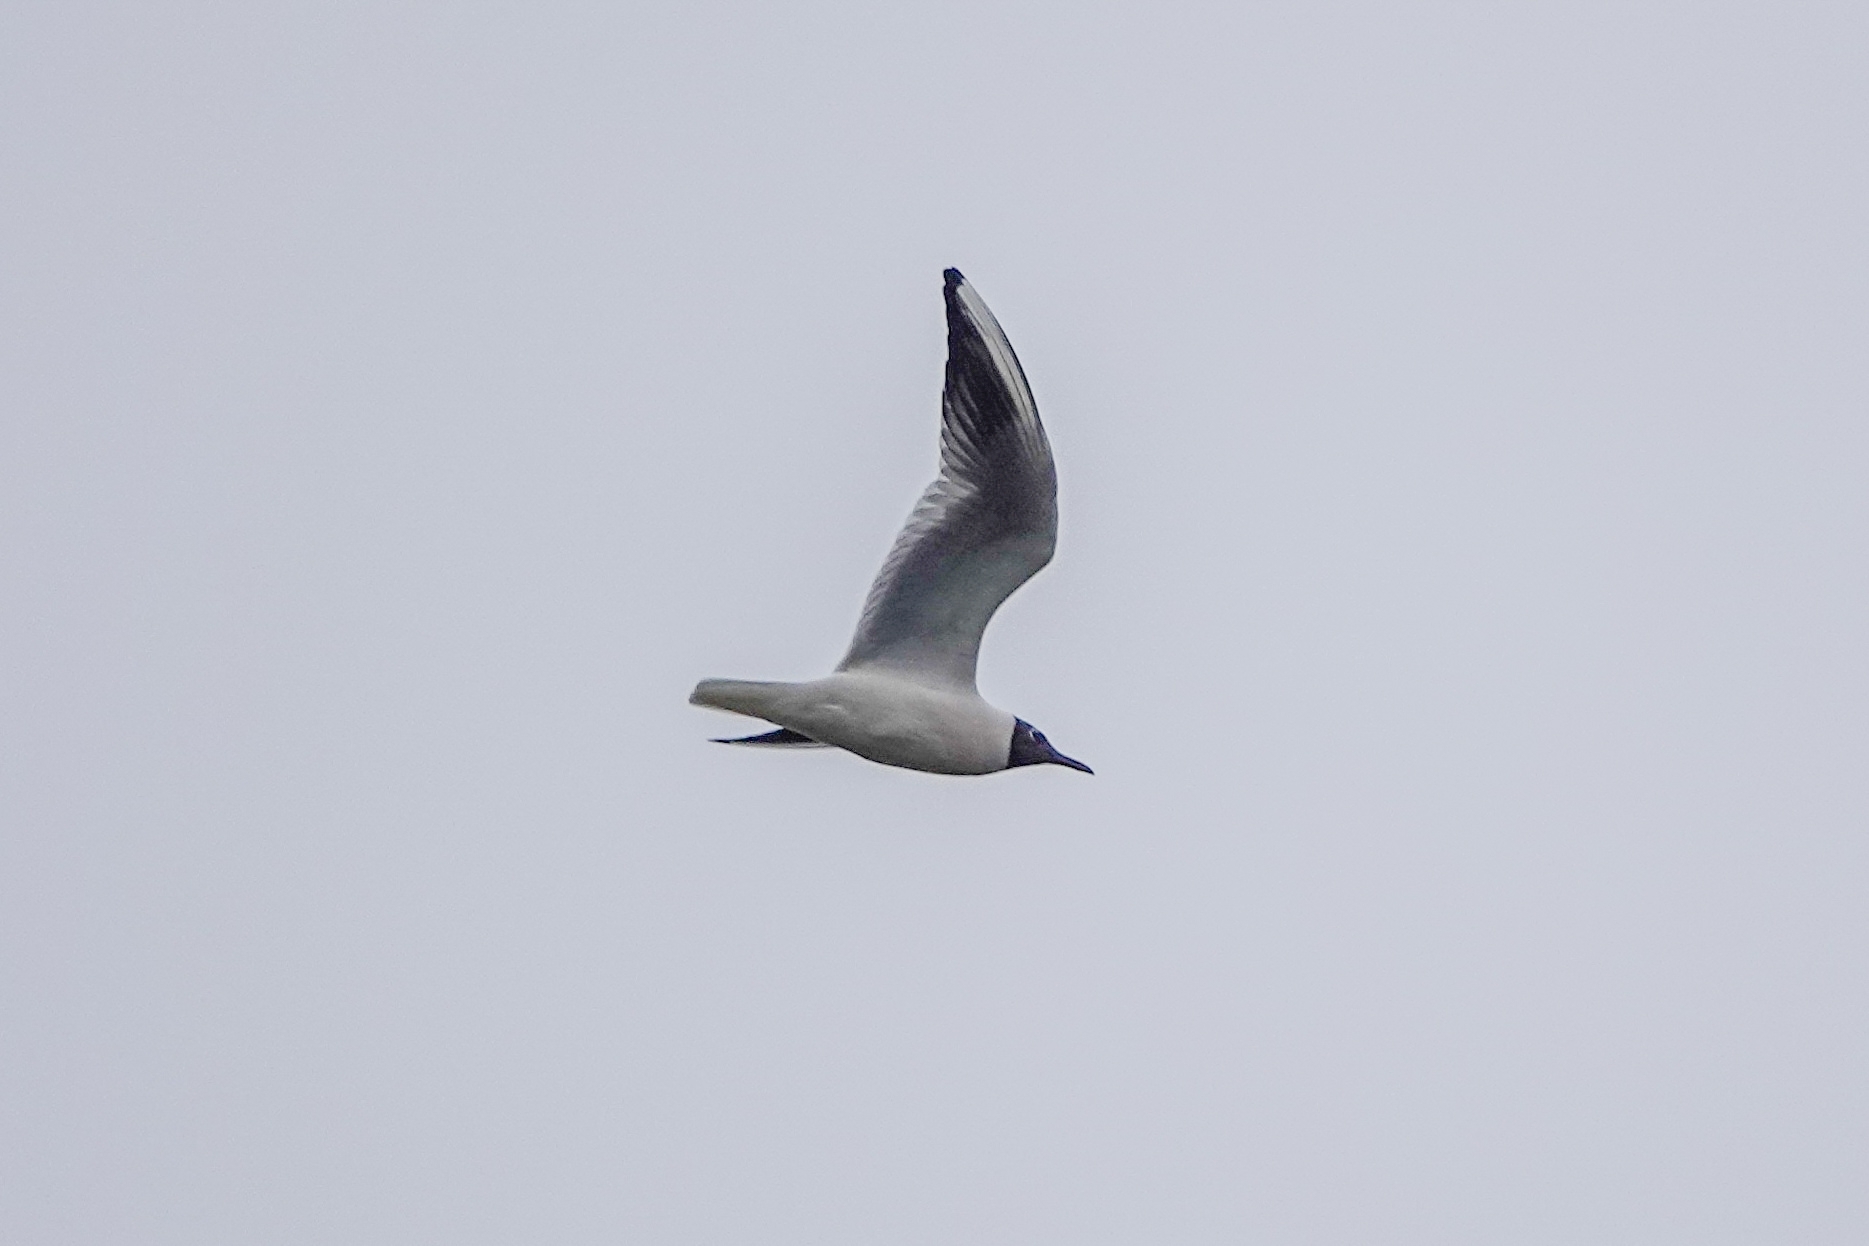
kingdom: Animalia
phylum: Chordata
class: Aves
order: Charadriiformes
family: Laridae
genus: Chroicocephalus
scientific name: Chroicocephalus ridibundus
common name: Black-headed gull
